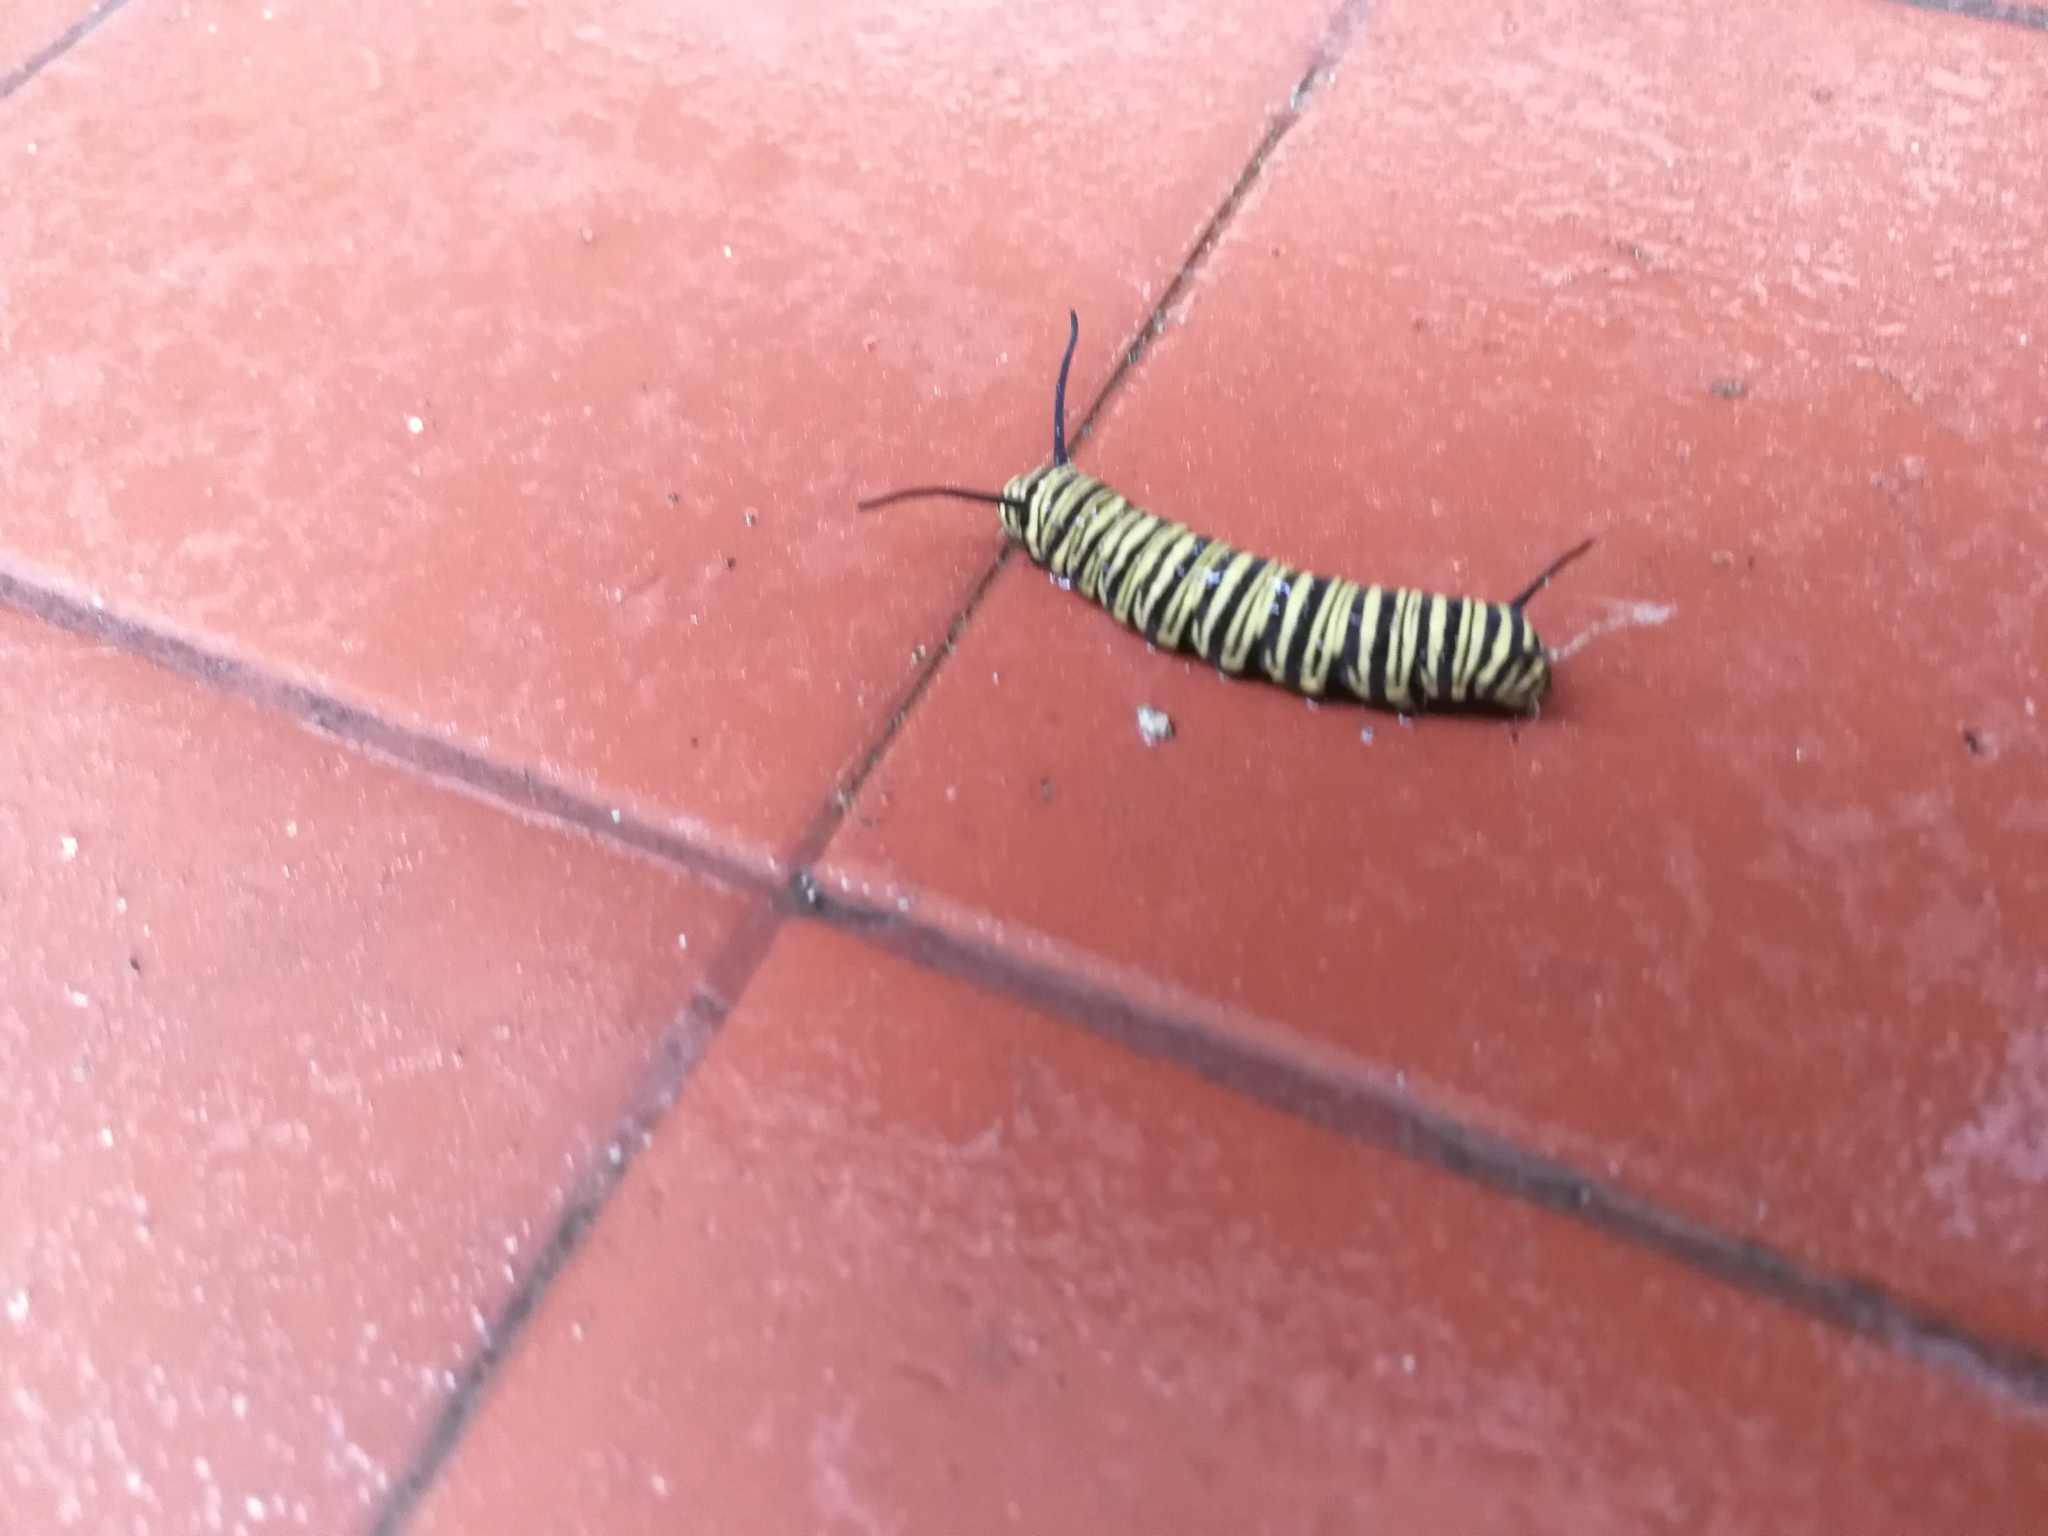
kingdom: Animalia
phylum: Arthropoda
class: Insecta
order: Lepidoptera
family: Nymphalidae
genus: Danaus
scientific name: Danaus erippus
